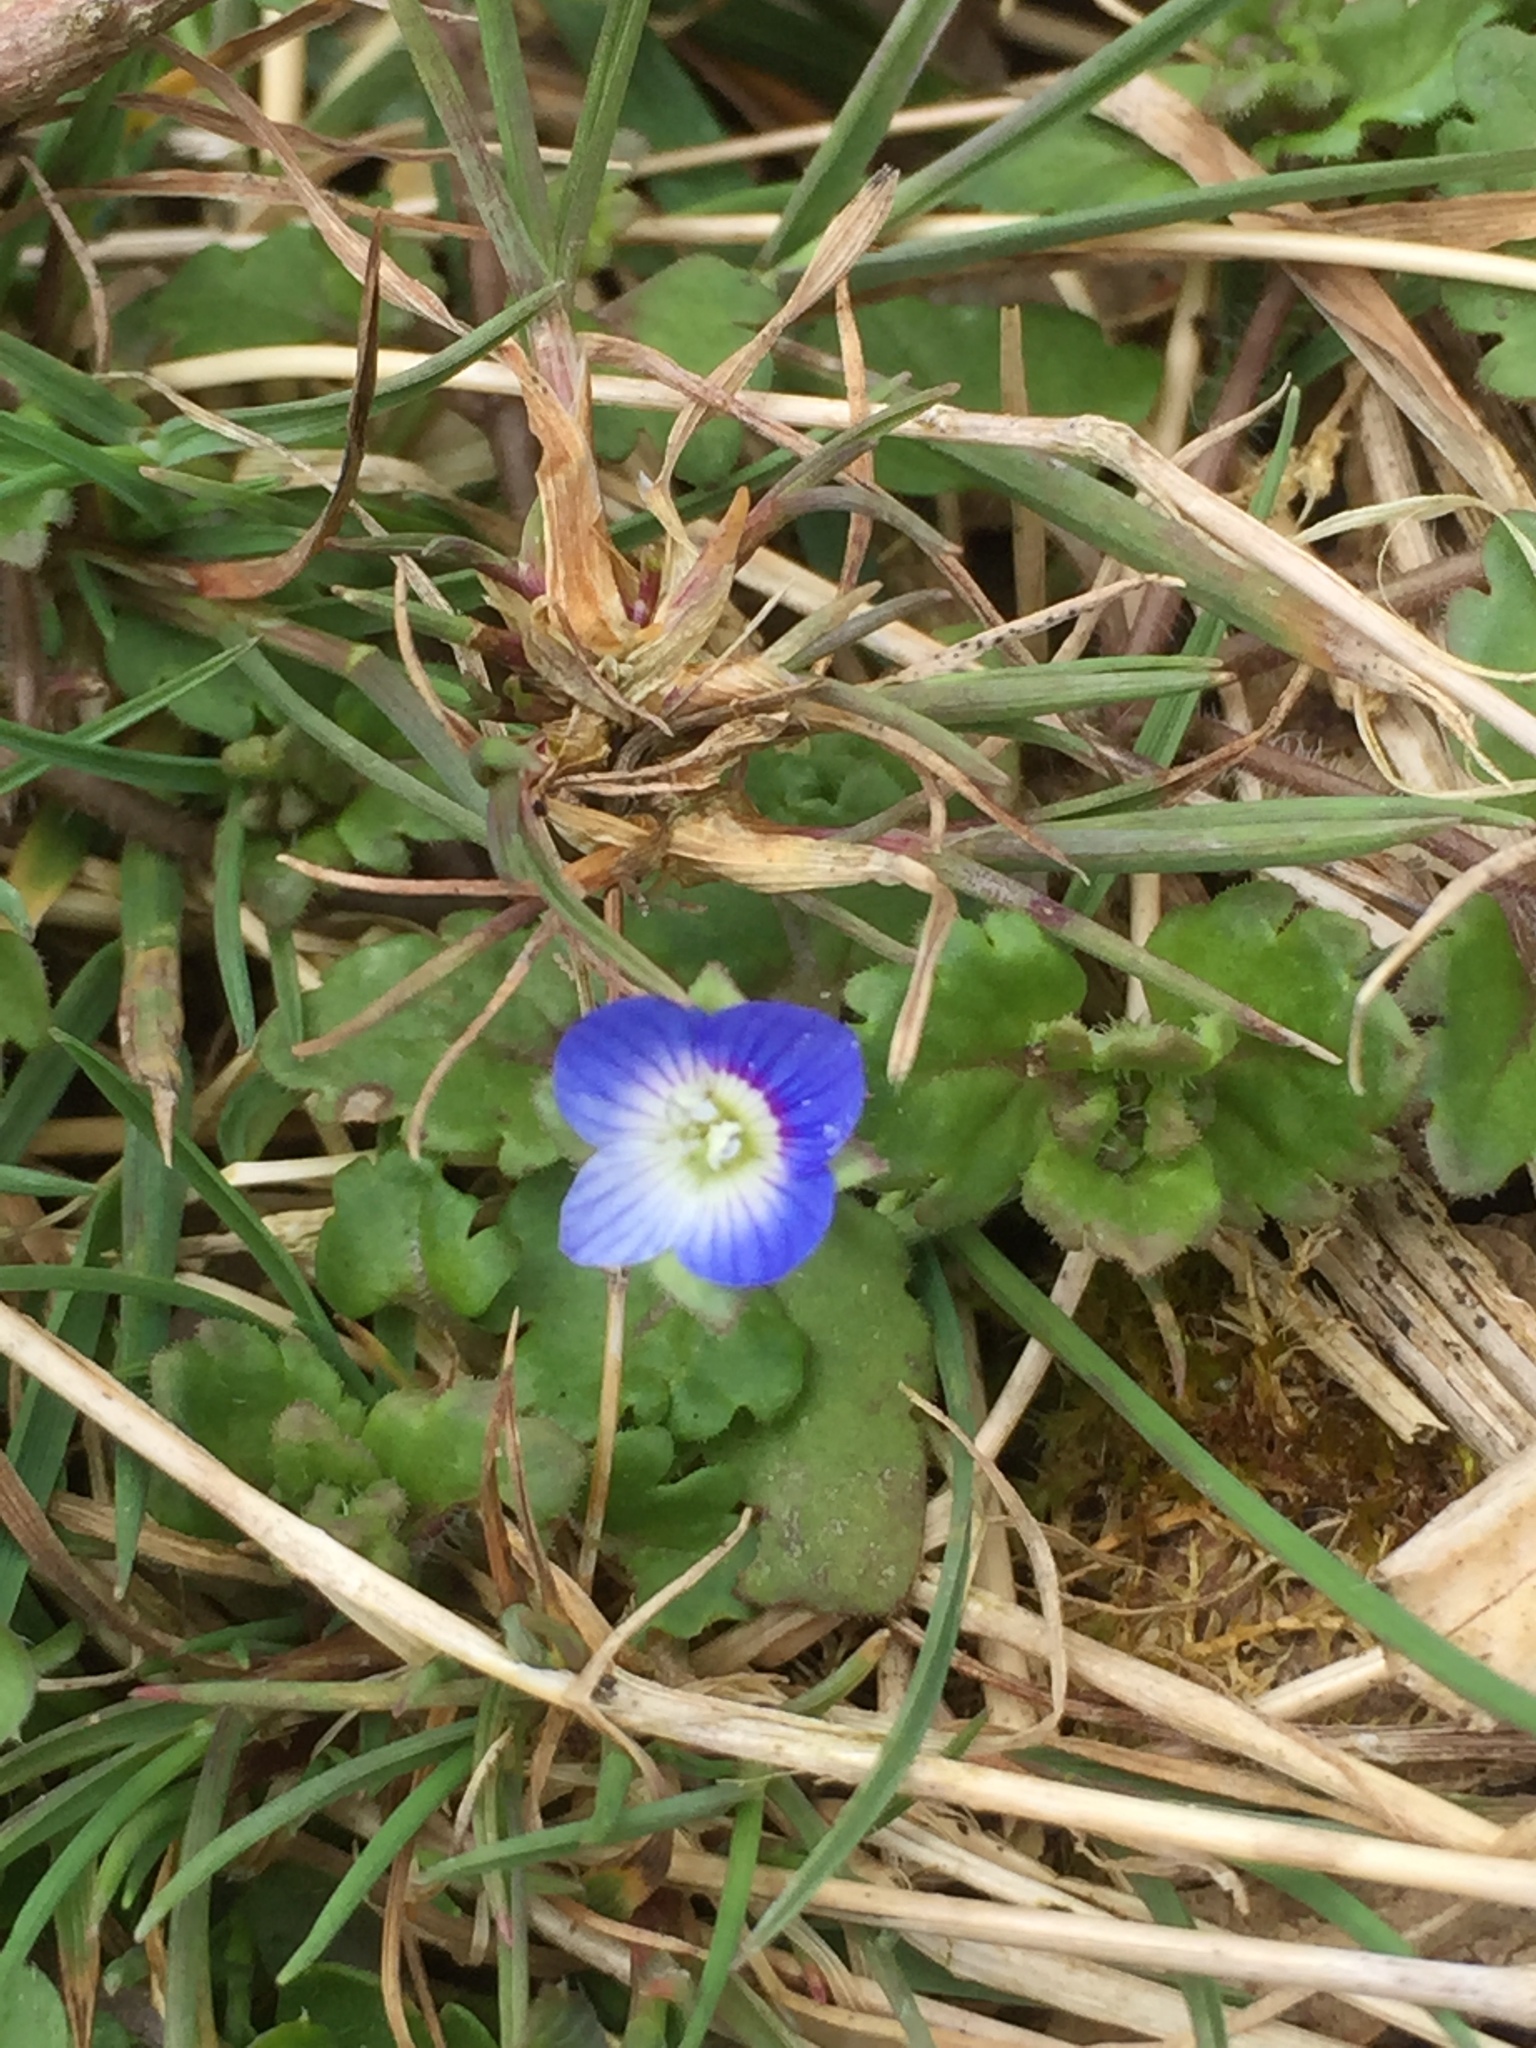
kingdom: Plantae
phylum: Tracheophyta
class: Magnoliopsida
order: Lamiales
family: Plantaginaceae
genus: Veronica
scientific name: Veronica persica
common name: Common field-speedwell
